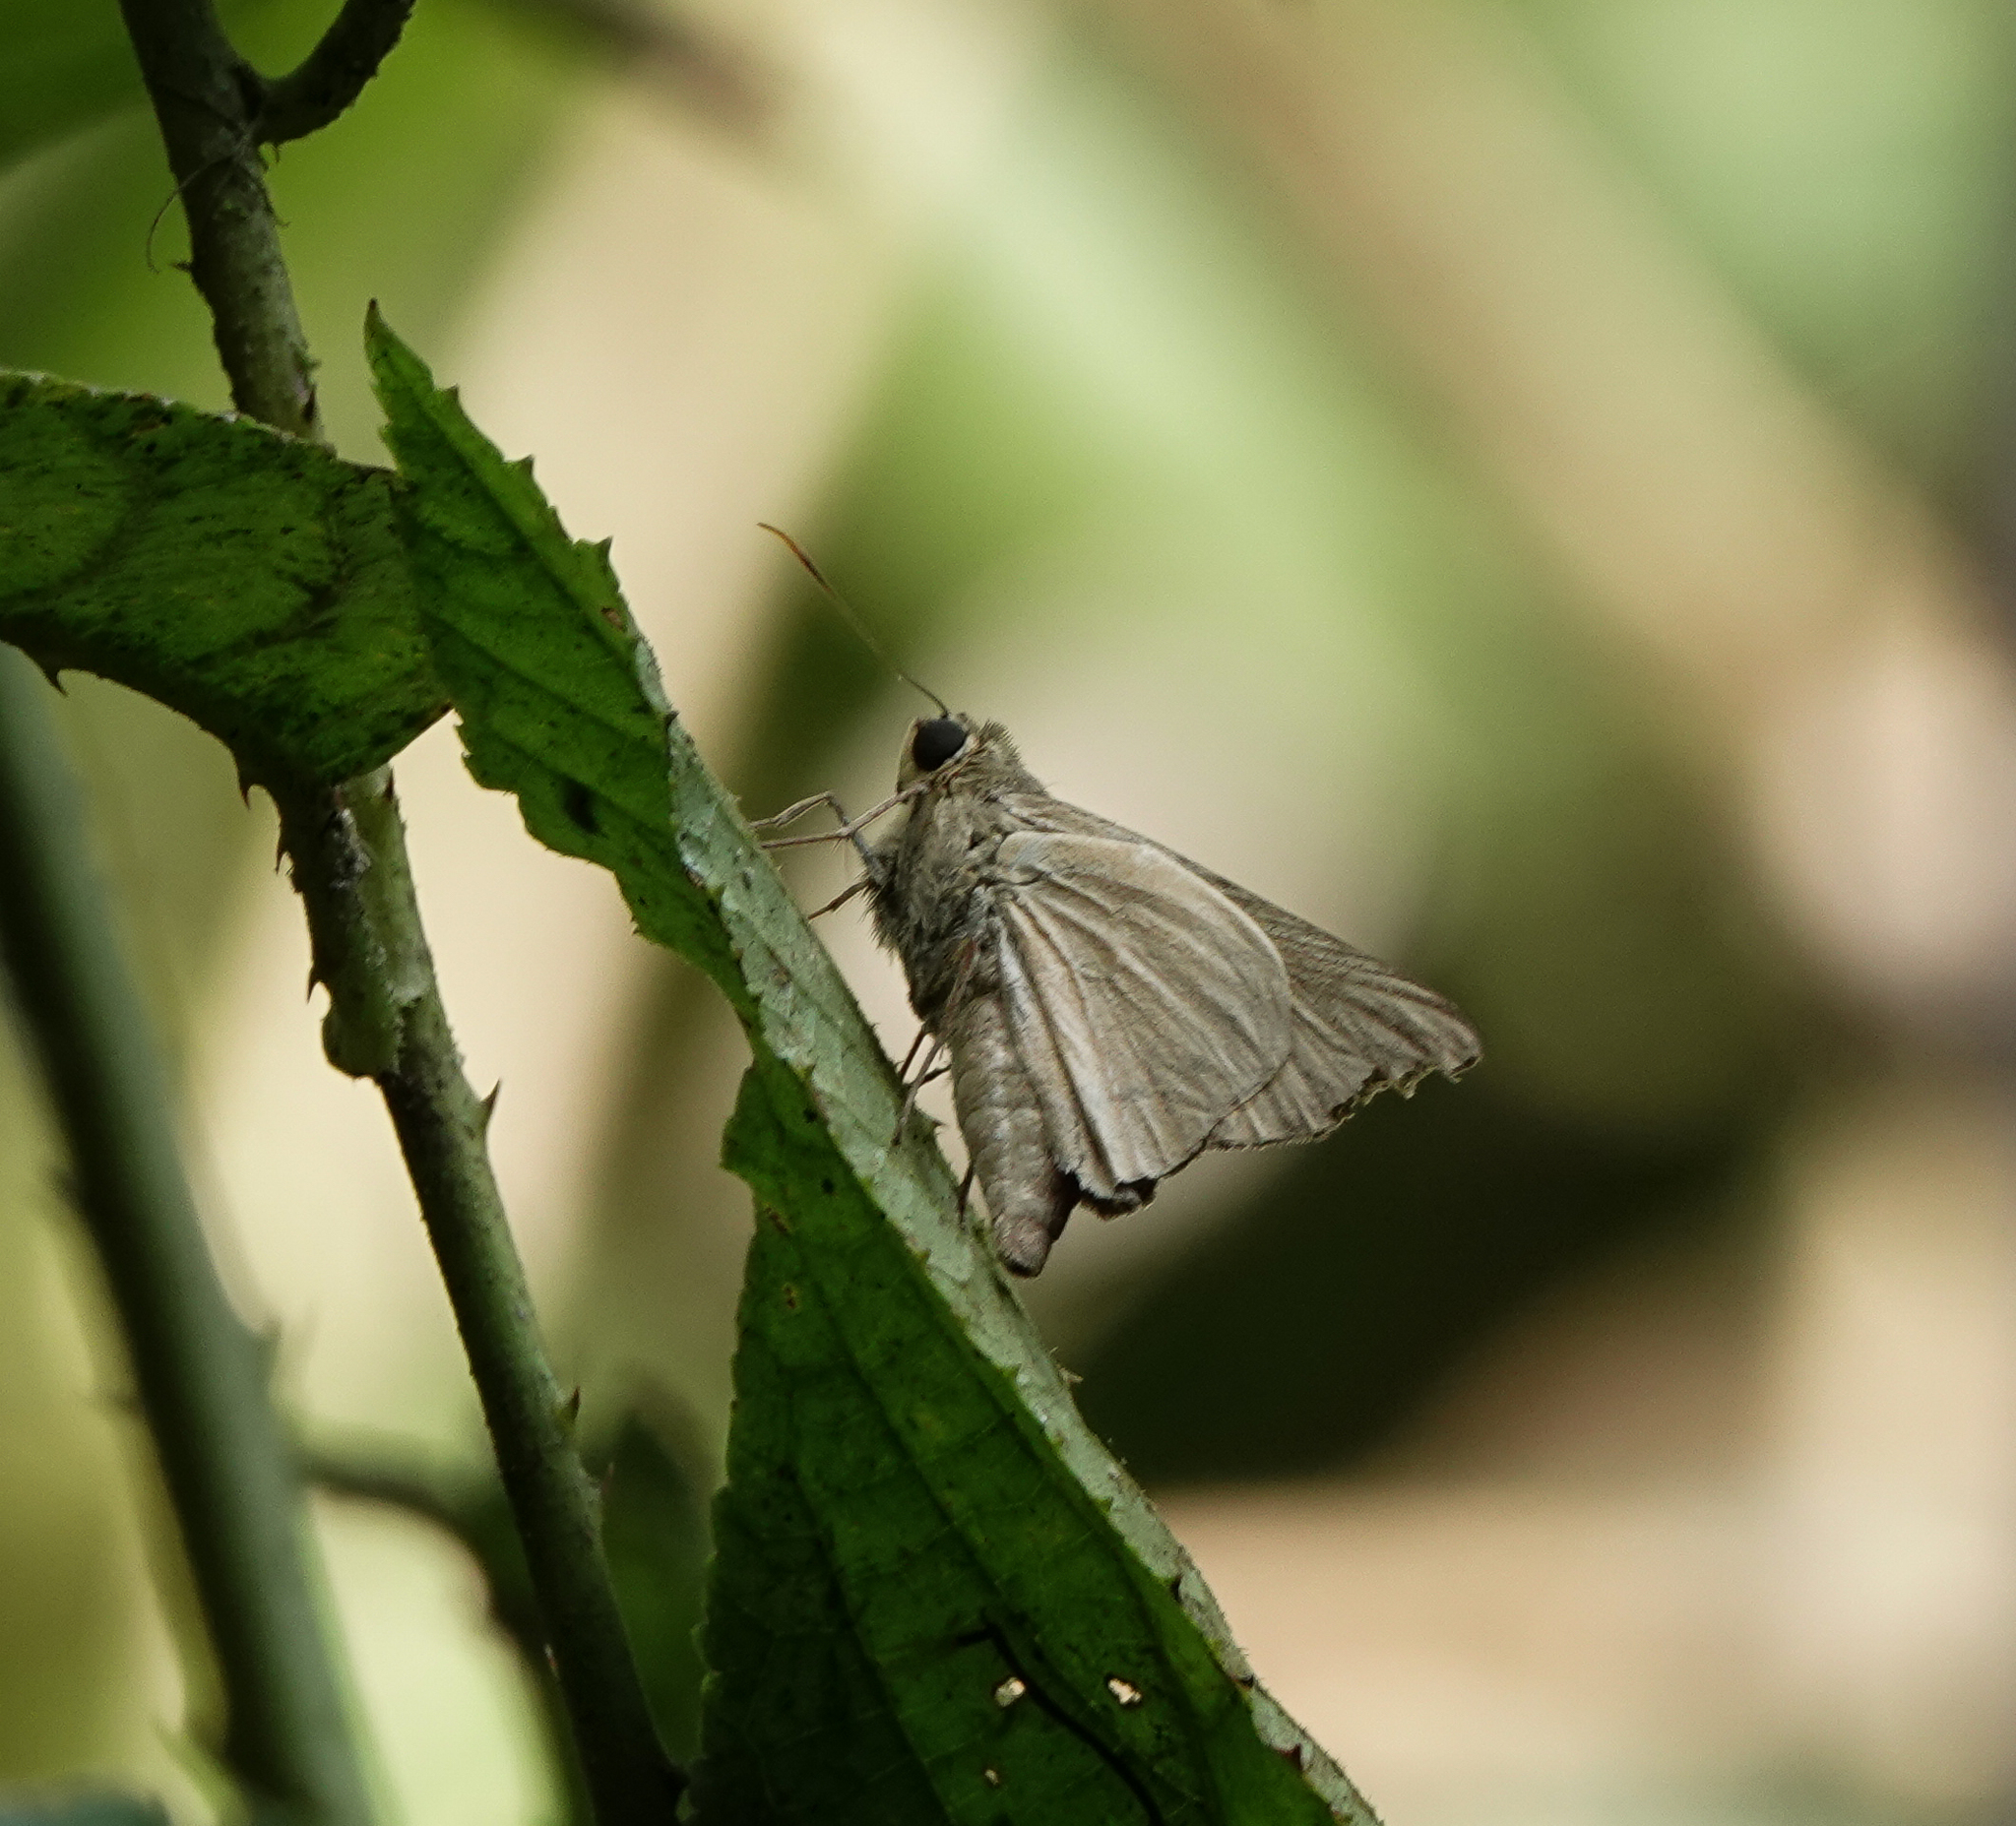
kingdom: Animalia
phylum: Arthropoda
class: Insecta
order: Lepidoptera
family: Hesperiidae
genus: Badamia
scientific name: Badamia exclamationis
